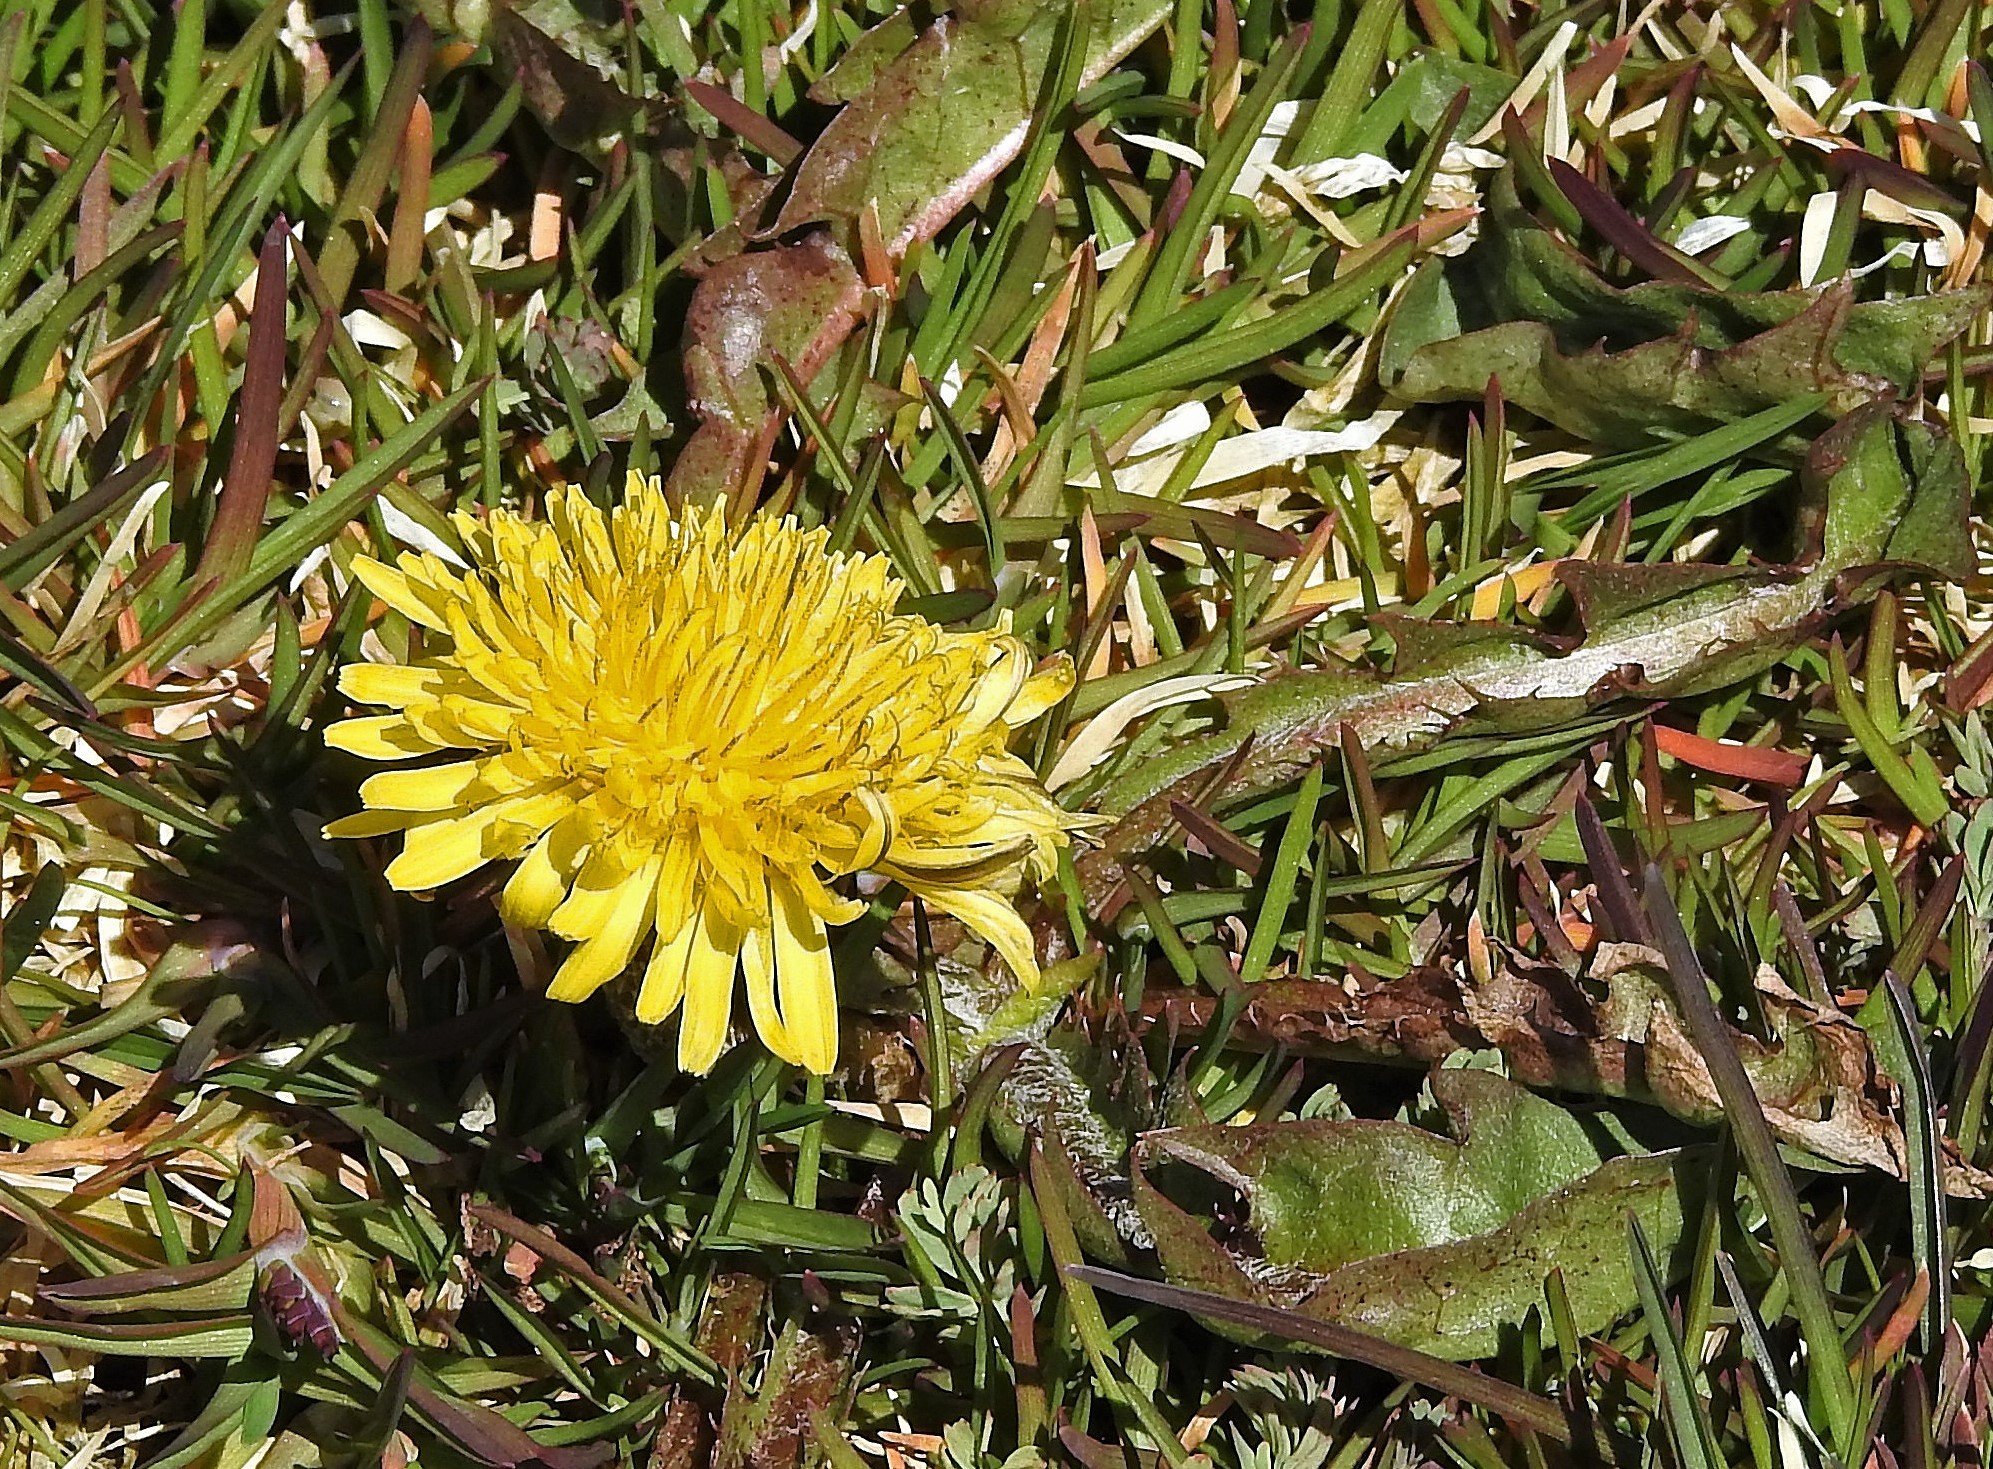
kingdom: Plantae
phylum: Tracheophyta
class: Magnoliopsida
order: Asterales
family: Asteraceae
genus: Taraxacum
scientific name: Taraxacum officinale
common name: Common dandelion
